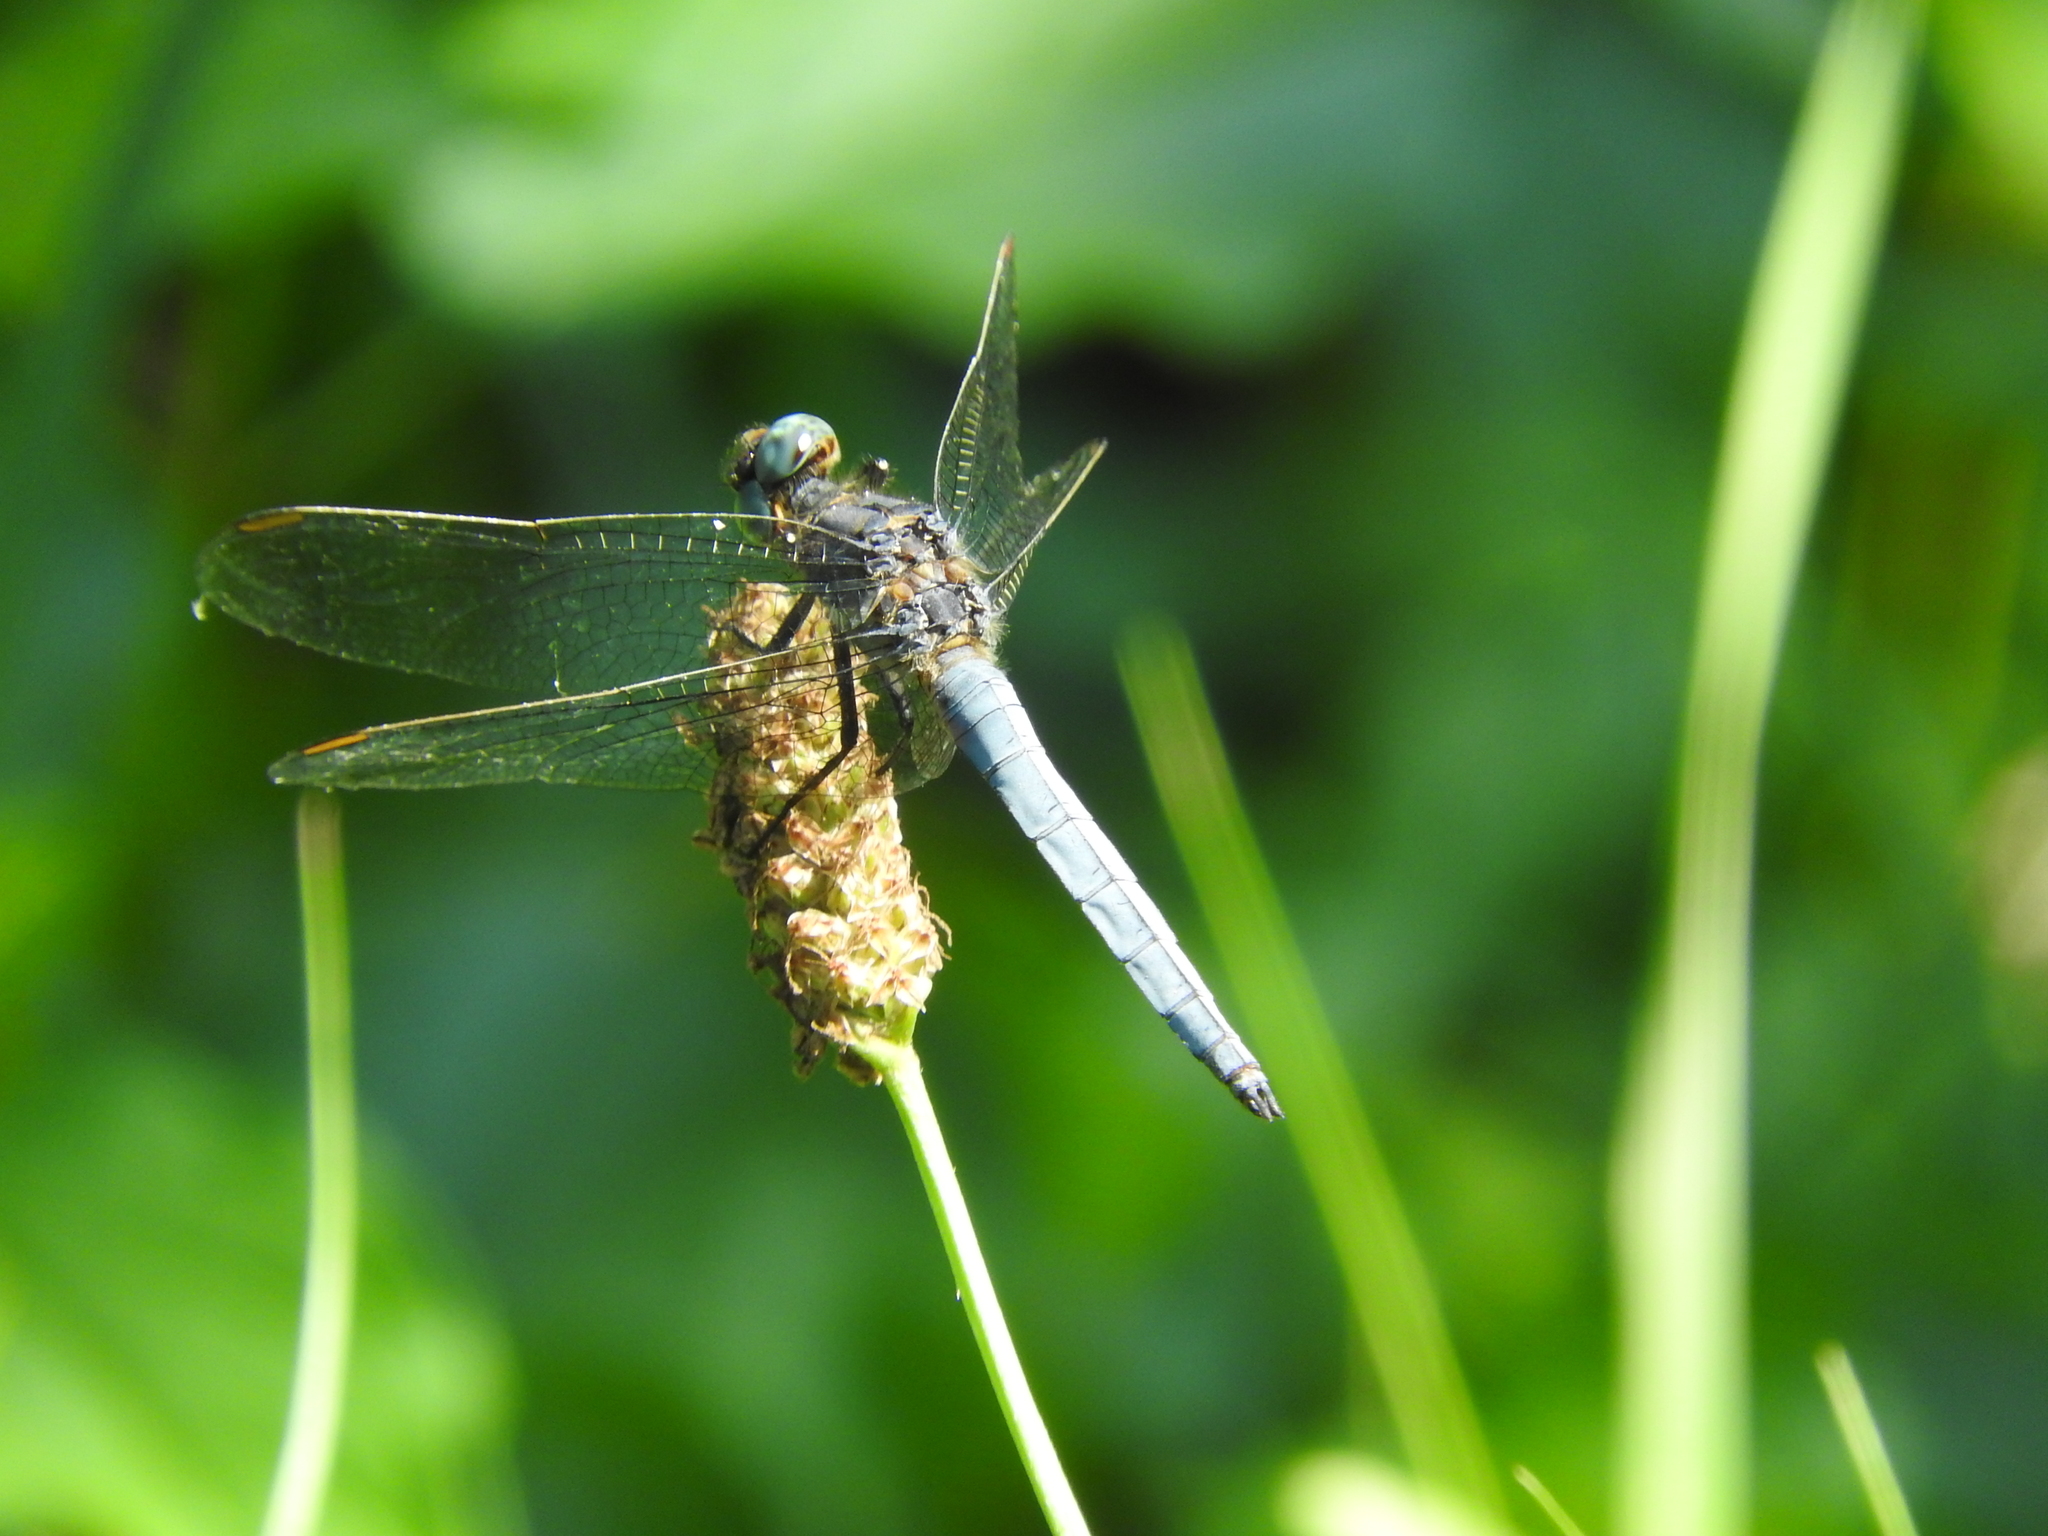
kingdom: Animalia
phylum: Arthropoda
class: Insecta
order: Odonata
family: Libellulidae
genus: Orthetrum
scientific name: Orthetrum coerulescens
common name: Keeled skimmer
